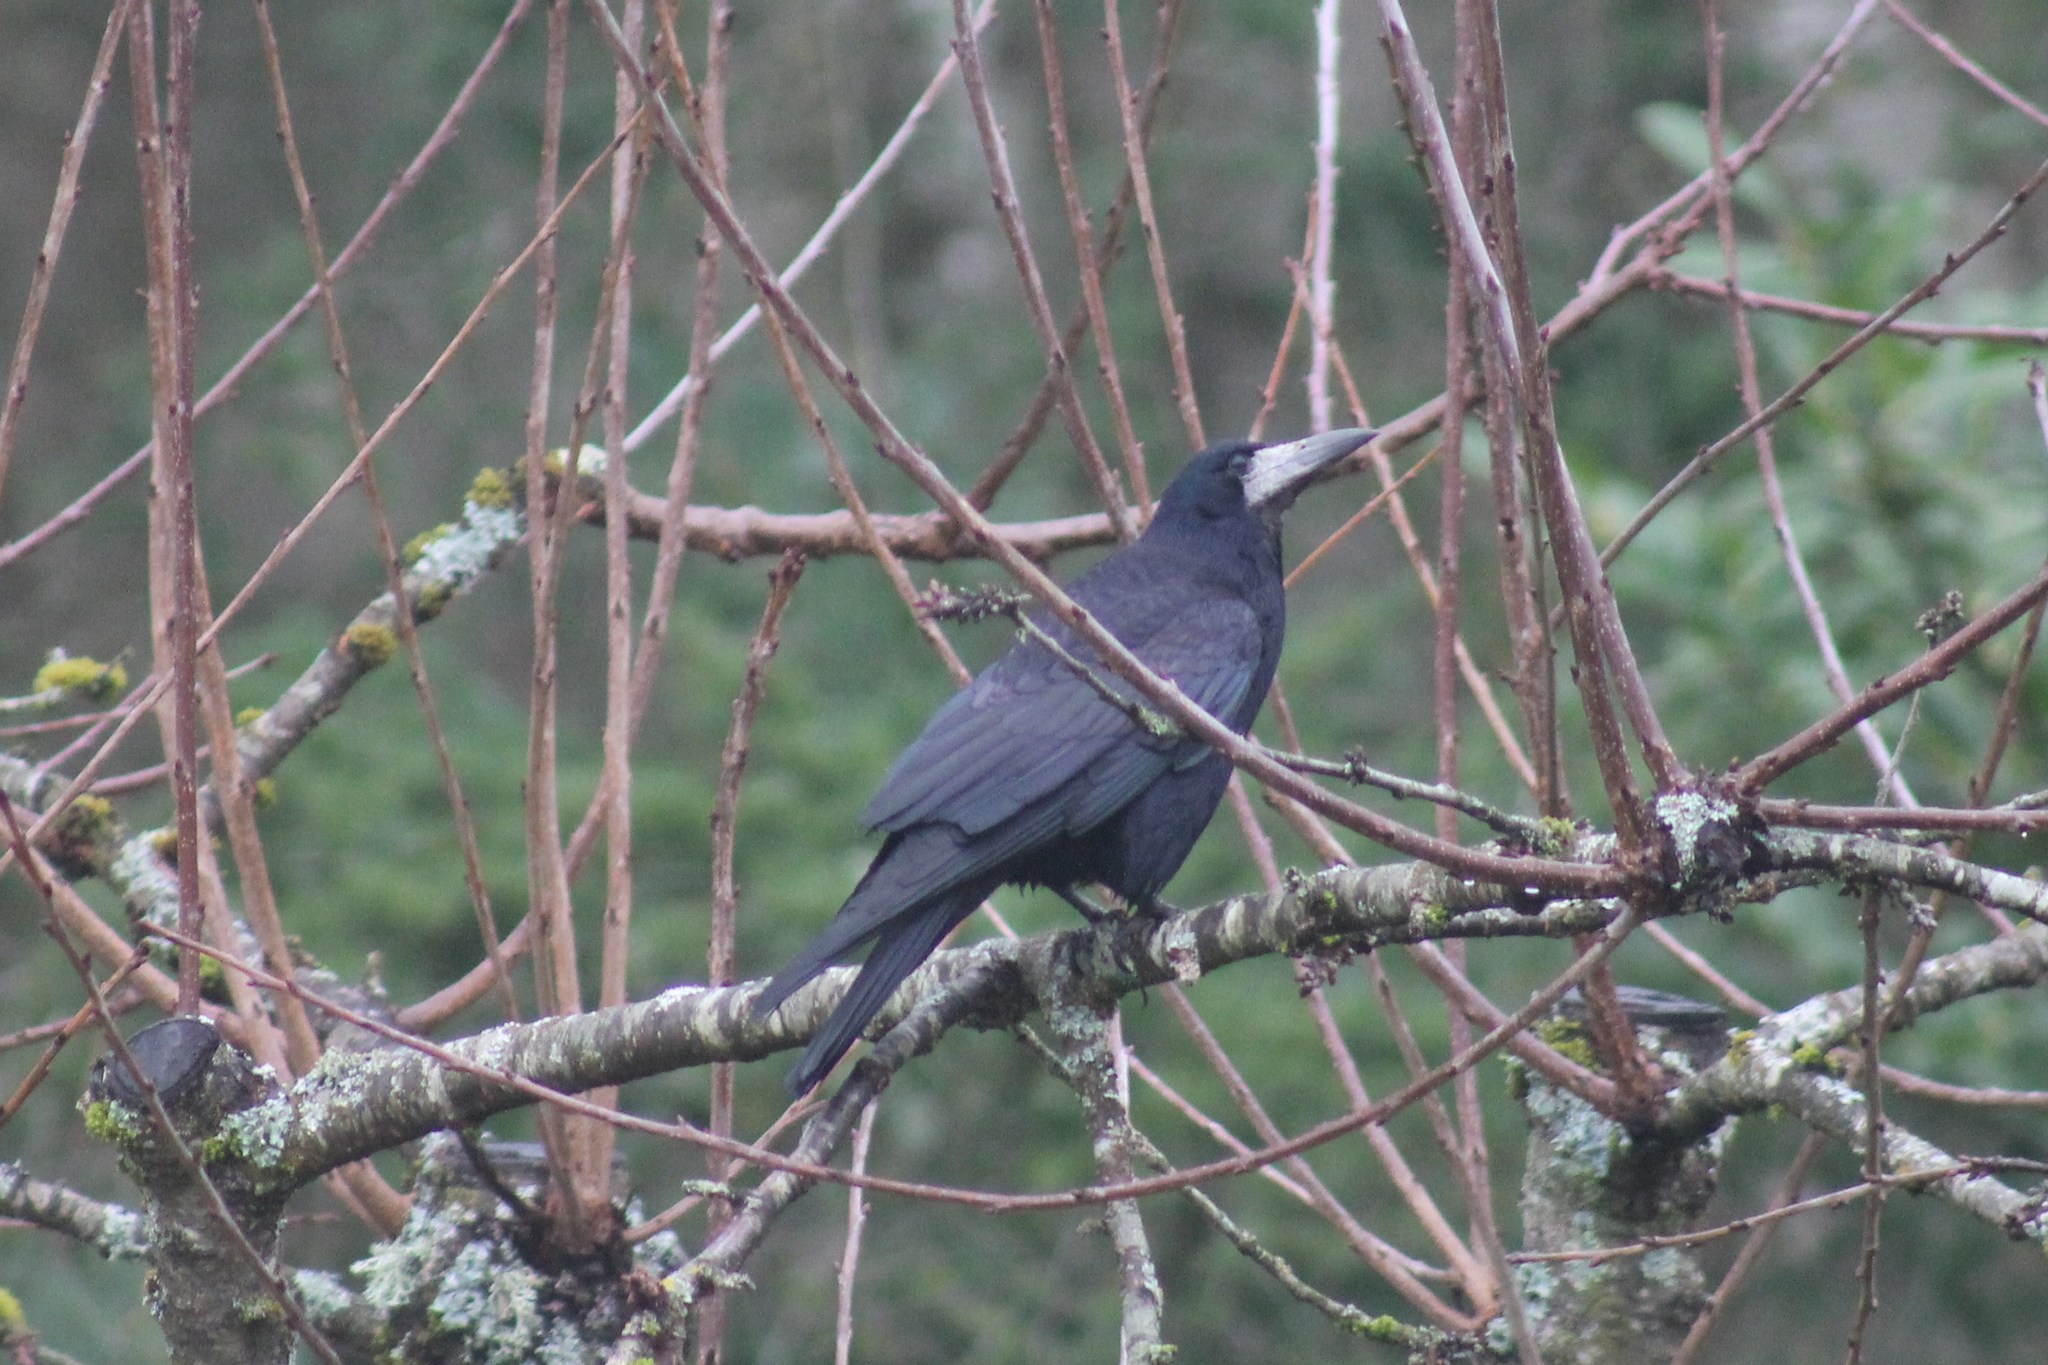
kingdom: Animalia
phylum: Chordata
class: Aves
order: Passeriformes
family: Corvidae
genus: Corvus
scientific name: Corvus frugilegus
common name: Rook
